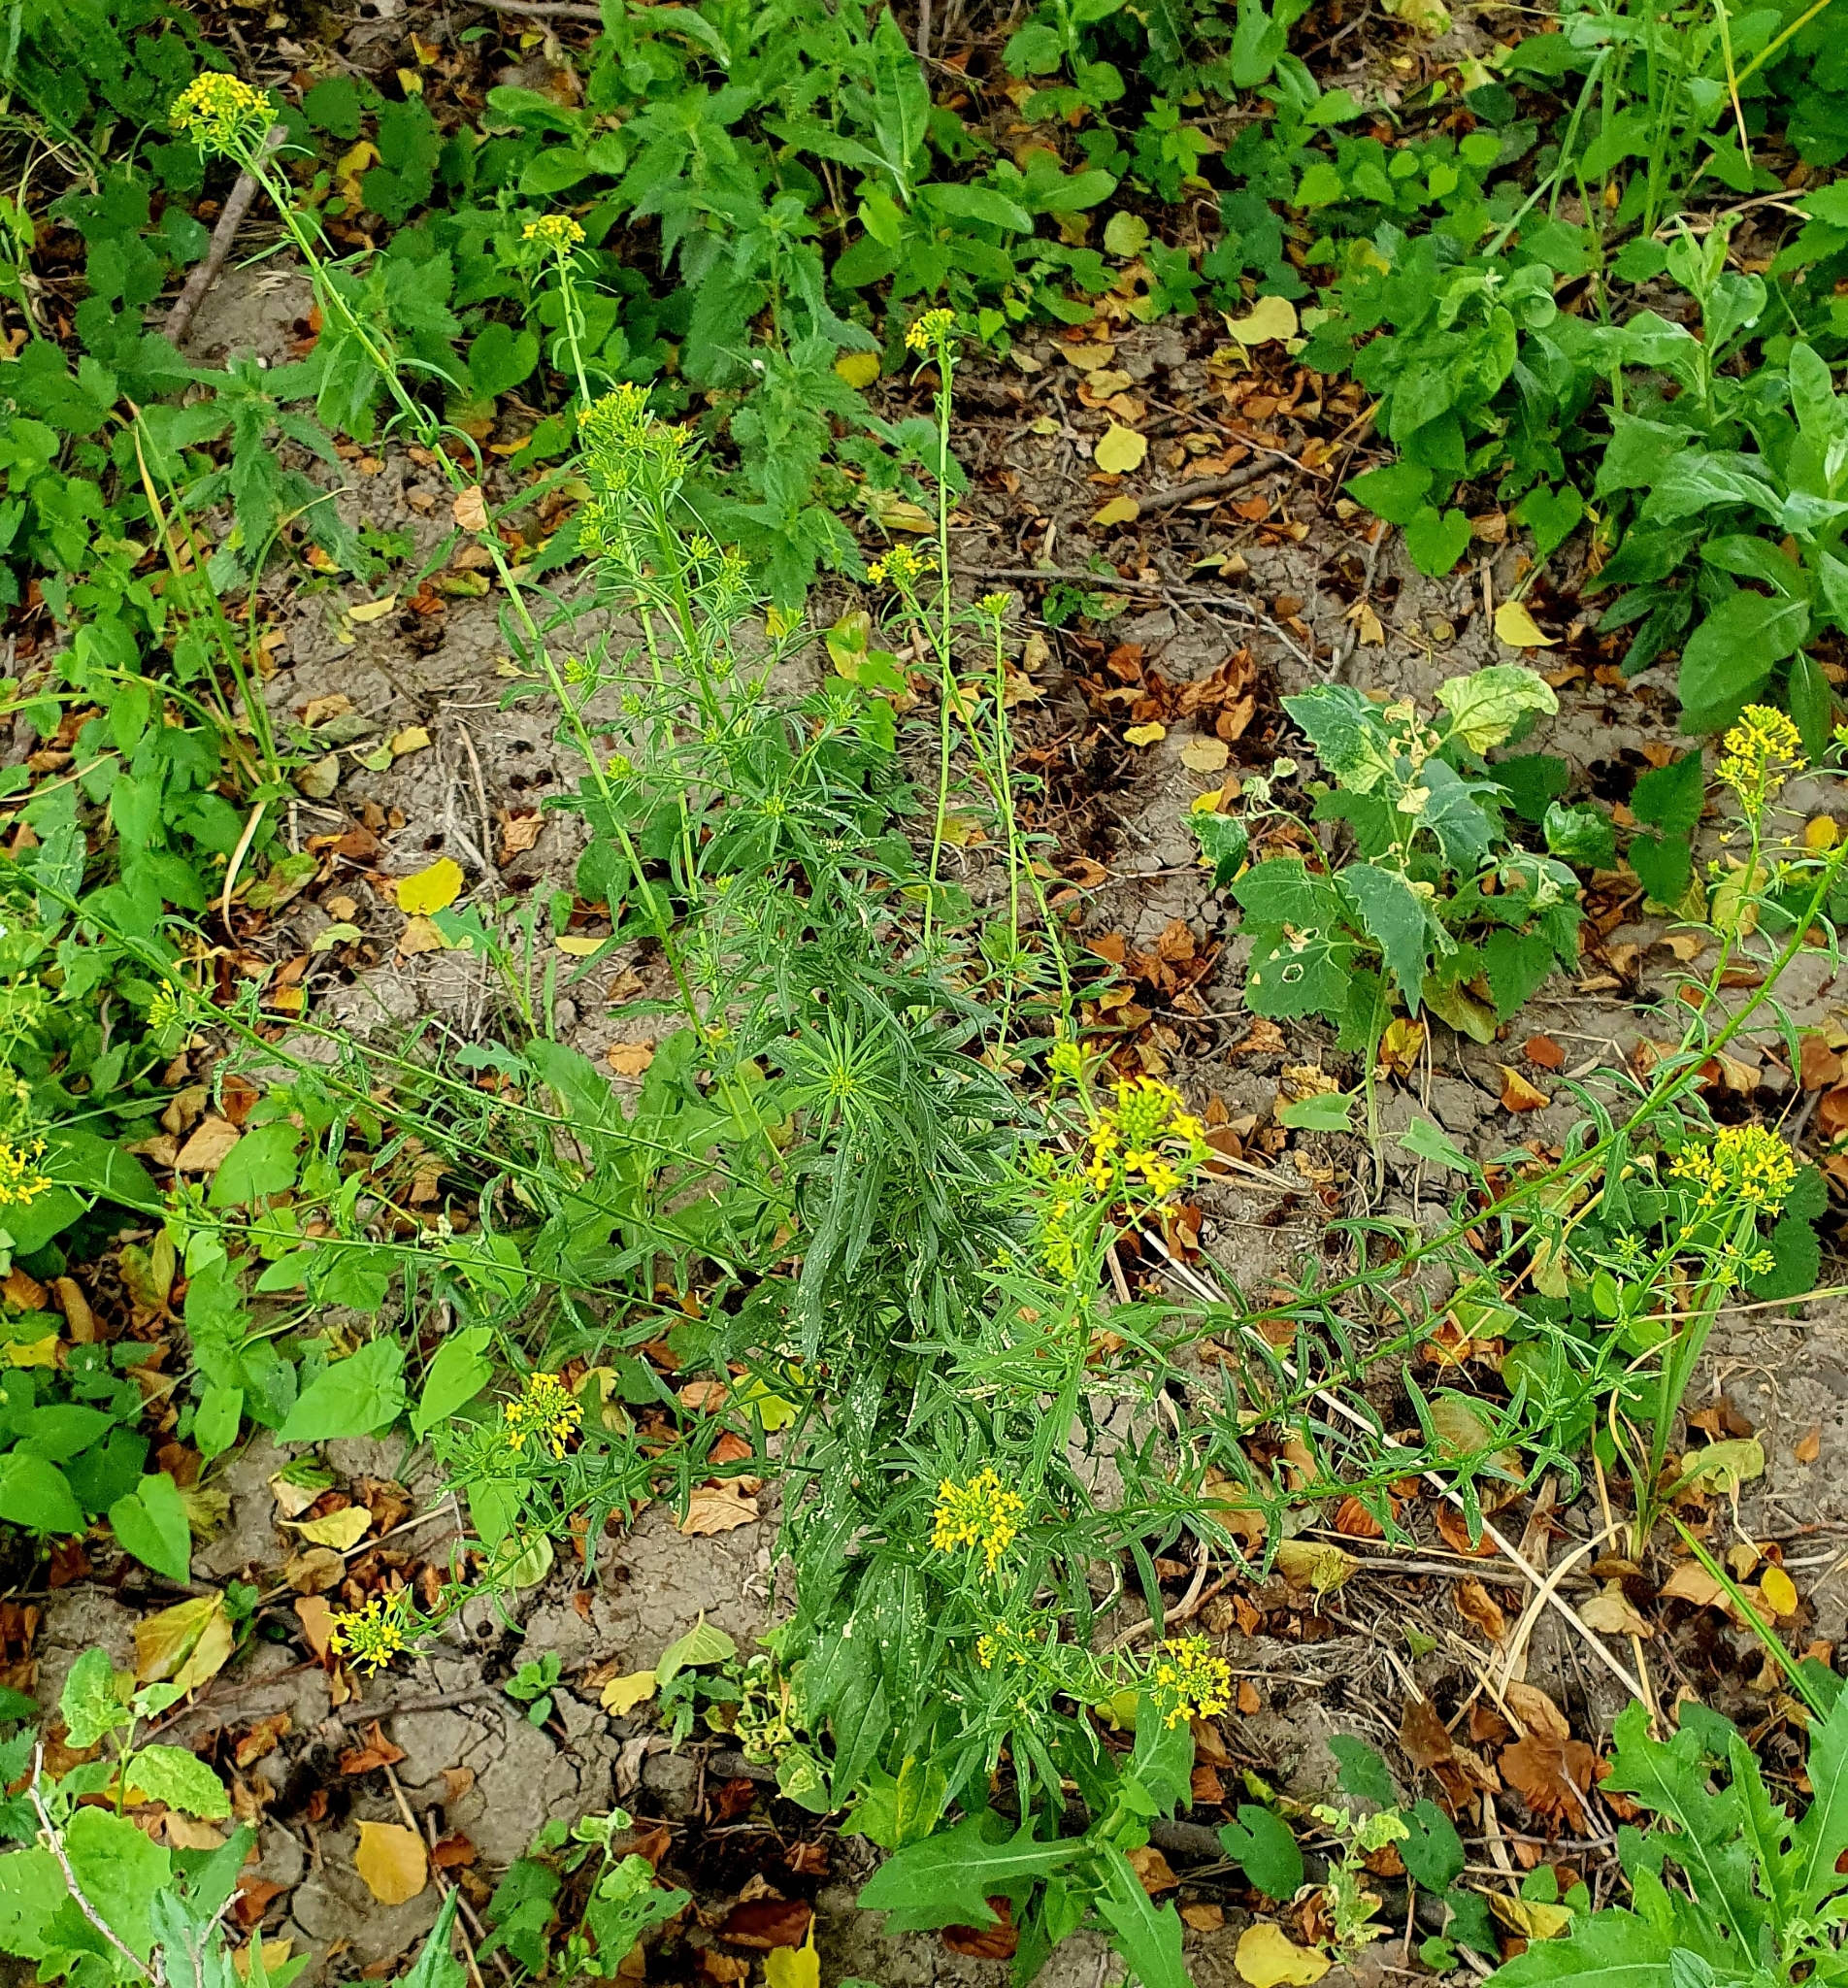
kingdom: Plantae
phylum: Tracheophyta
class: Magnoliopsida
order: Brassicales
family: Brassicaceae
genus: Erysimum
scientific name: Erysimum cheiranthoides
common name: Treacle mustard
